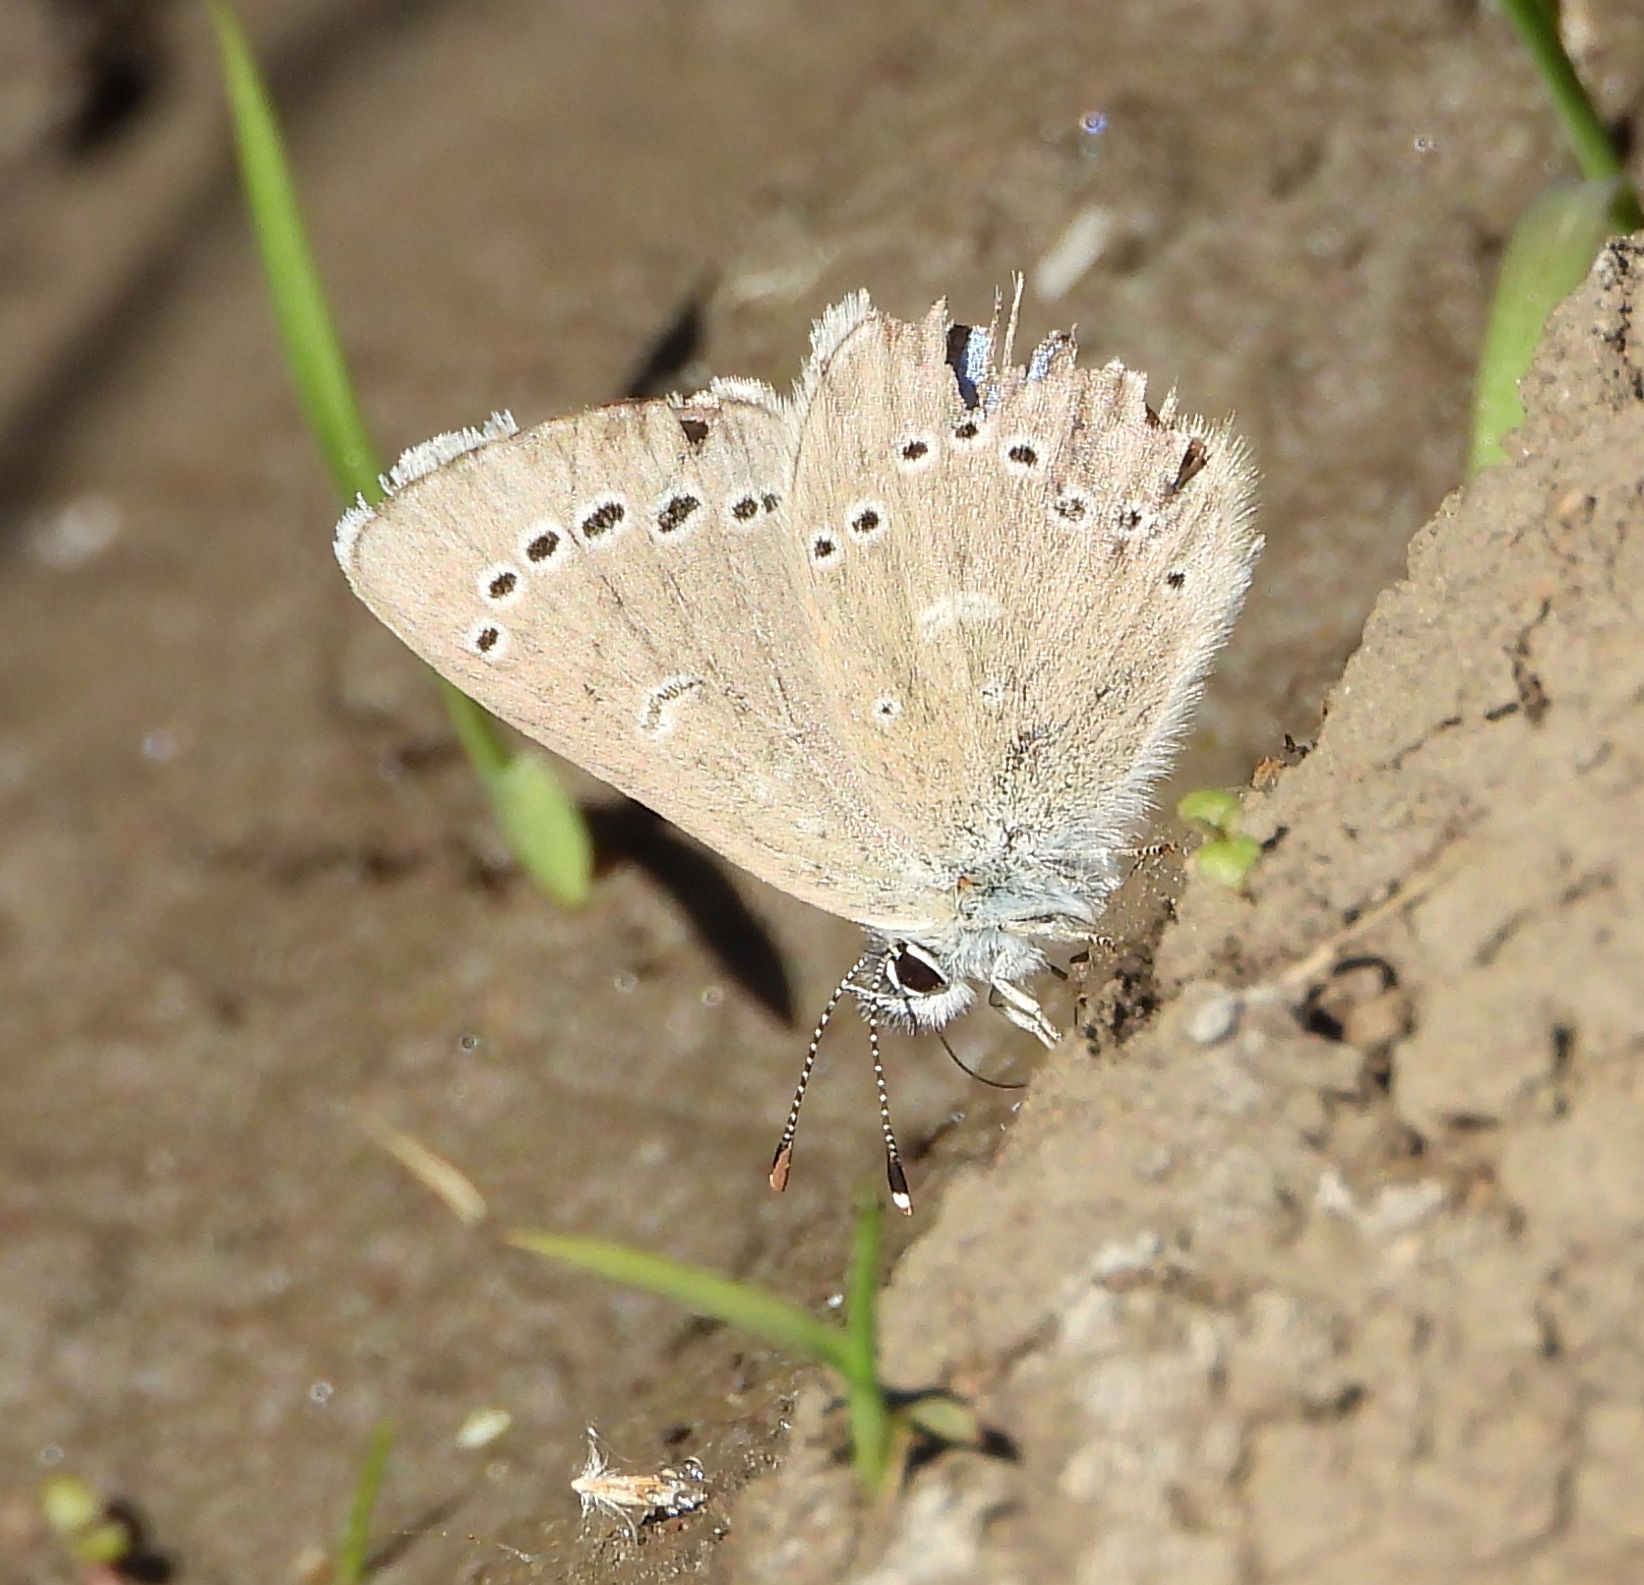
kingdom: Animalia
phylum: Arthropoda
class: Insecta
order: Lepidoptera
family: Lycaenidae
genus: Glaucopsyche
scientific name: Glaucopsyche lygdamus
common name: Silvery blue
